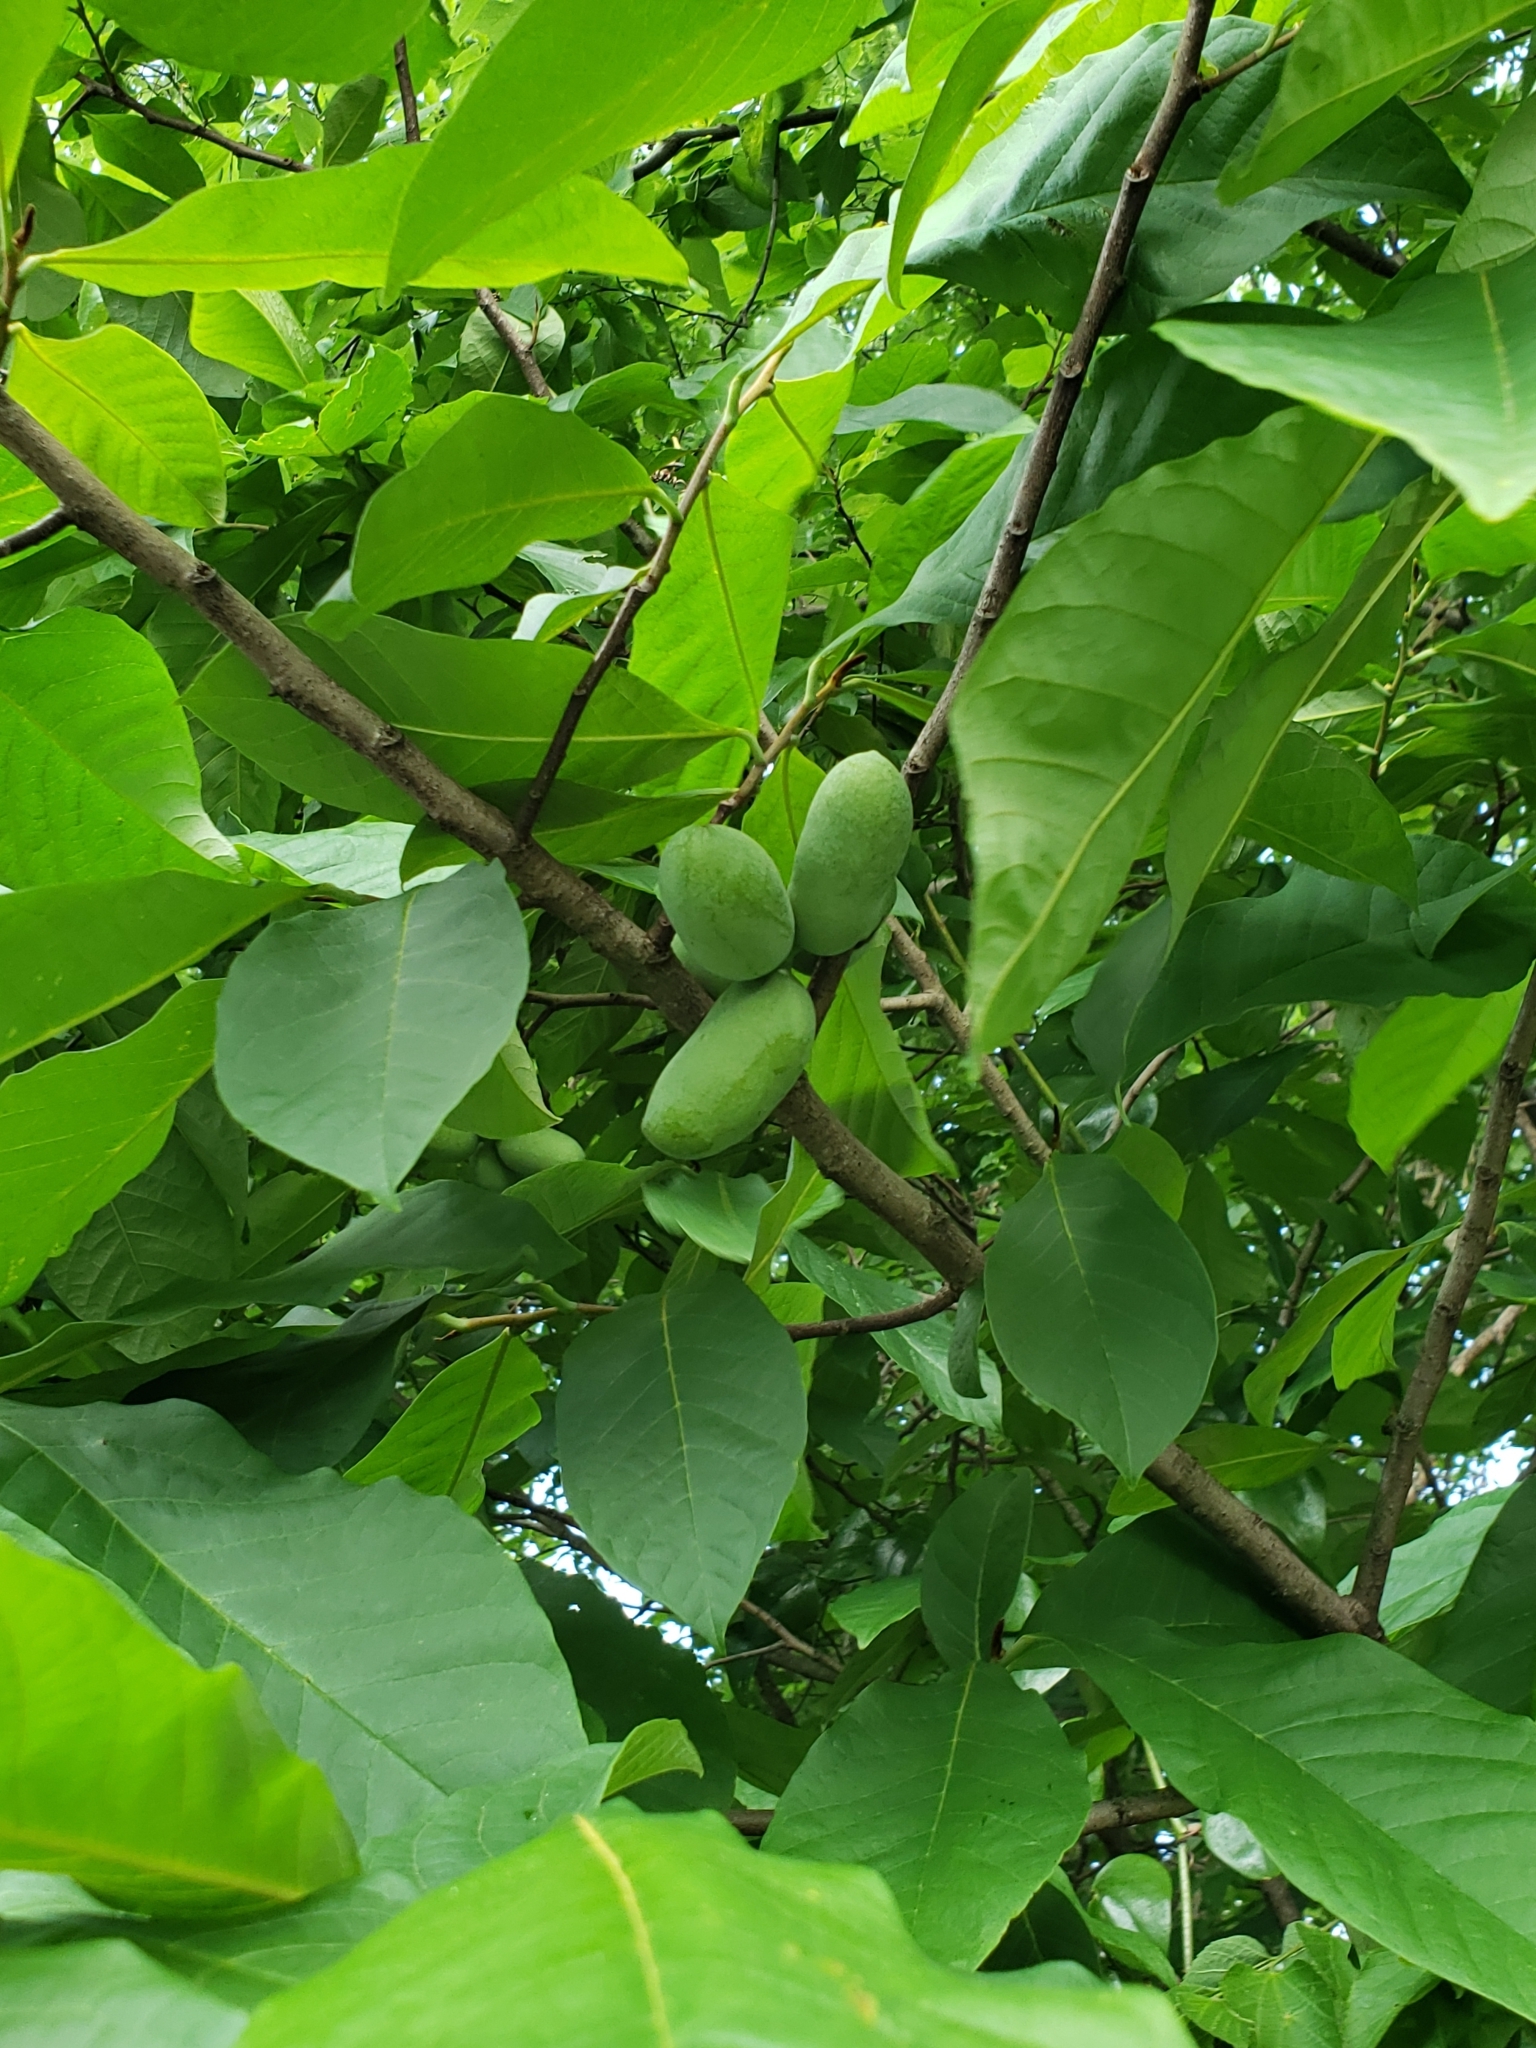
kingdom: Plantae
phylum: Tracheophyta
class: Magnoliopsida
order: Magnoliales
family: Annonaceae
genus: Asimina
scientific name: Asimina triloba
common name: Dog-banana
